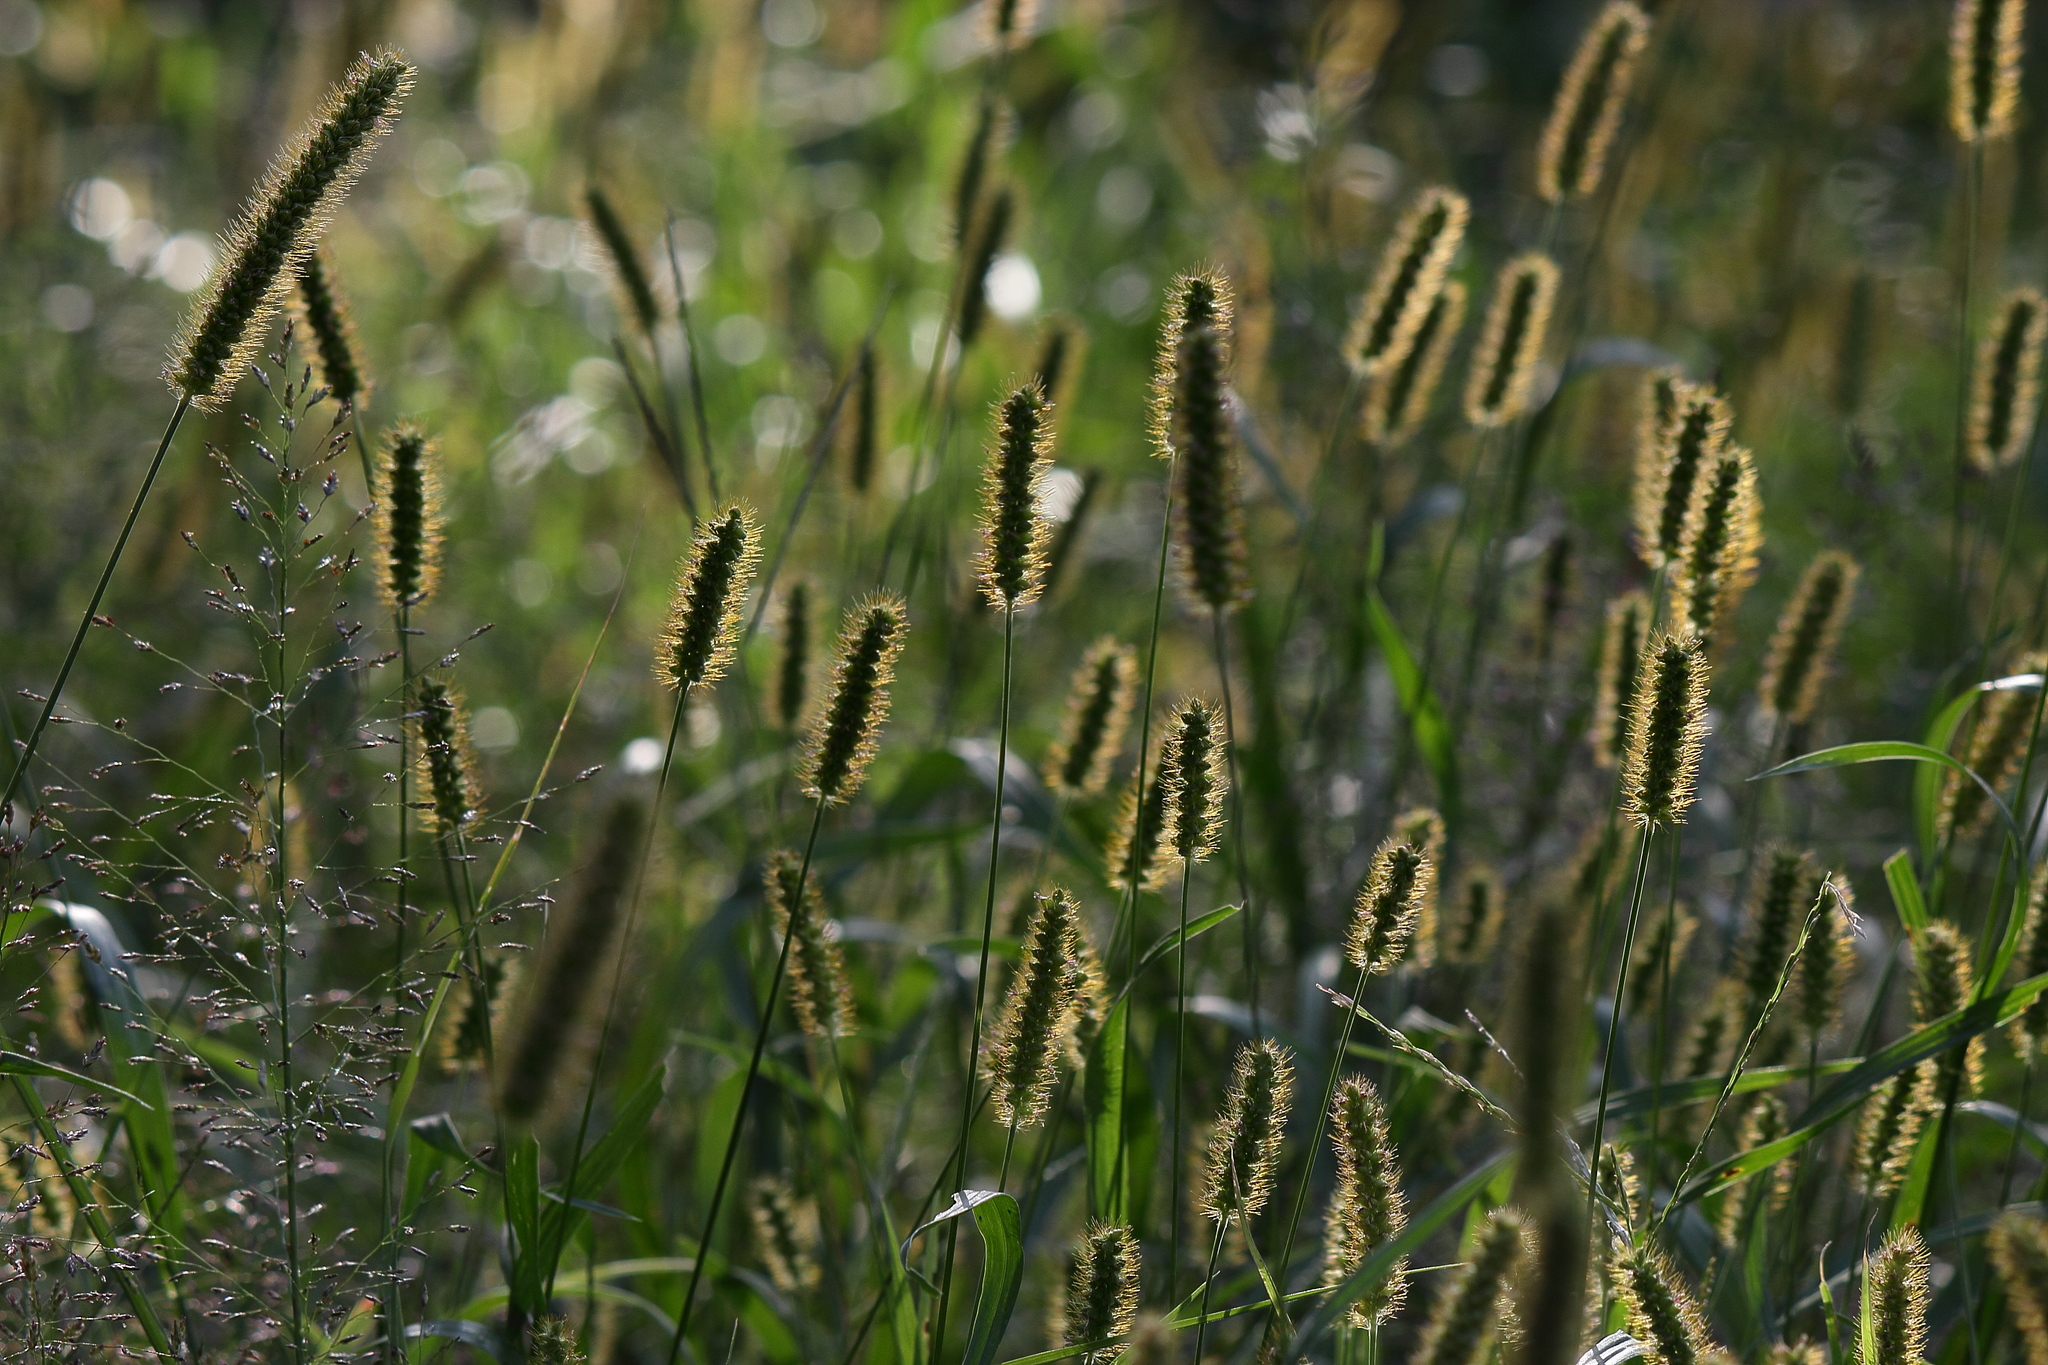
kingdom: Plantae
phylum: Tracheophyta
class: Liliopsida
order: Poales
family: Poaceae
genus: Setaria
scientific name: Setaria pumila
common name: Yellow bristle-grass
